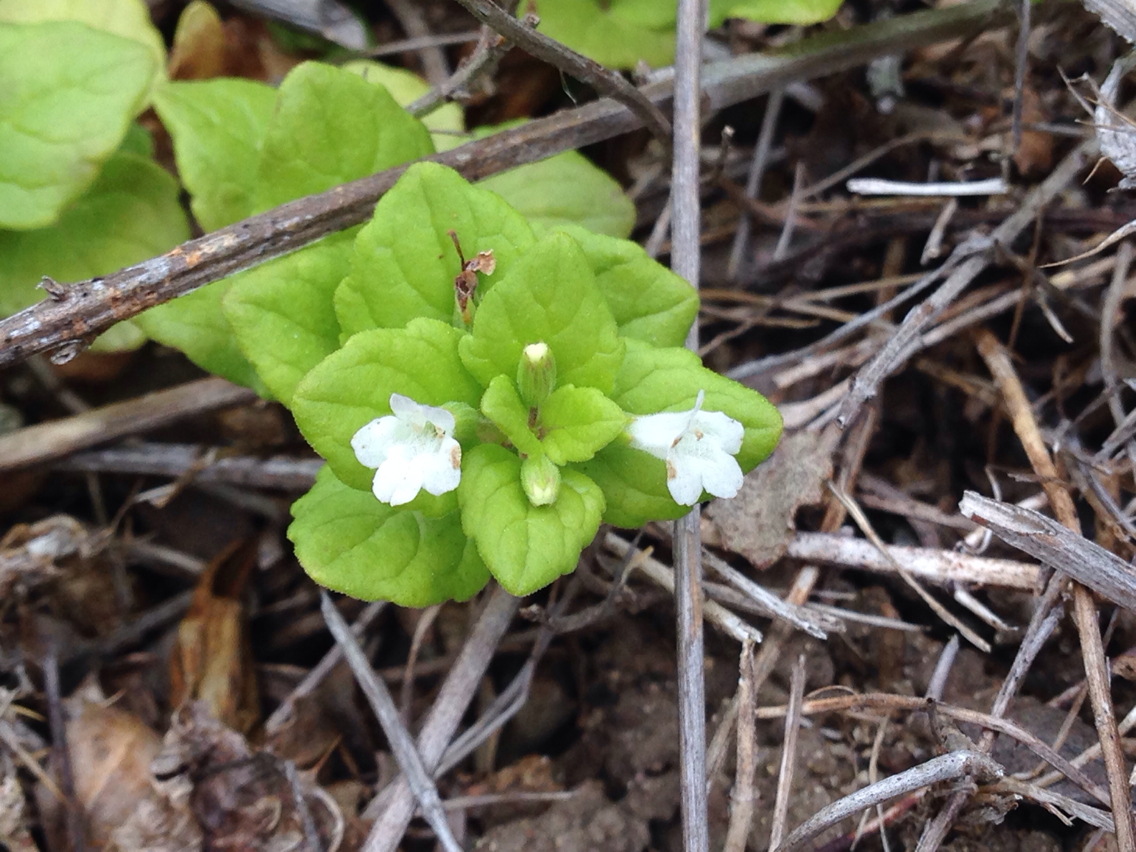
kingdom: Plantae
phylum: Tracheophyta
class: Magnoliopsida
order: Lamiales
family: Lamiaceae
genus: Micromeria
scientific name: Micromeria douglasii
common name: Yerba buena
